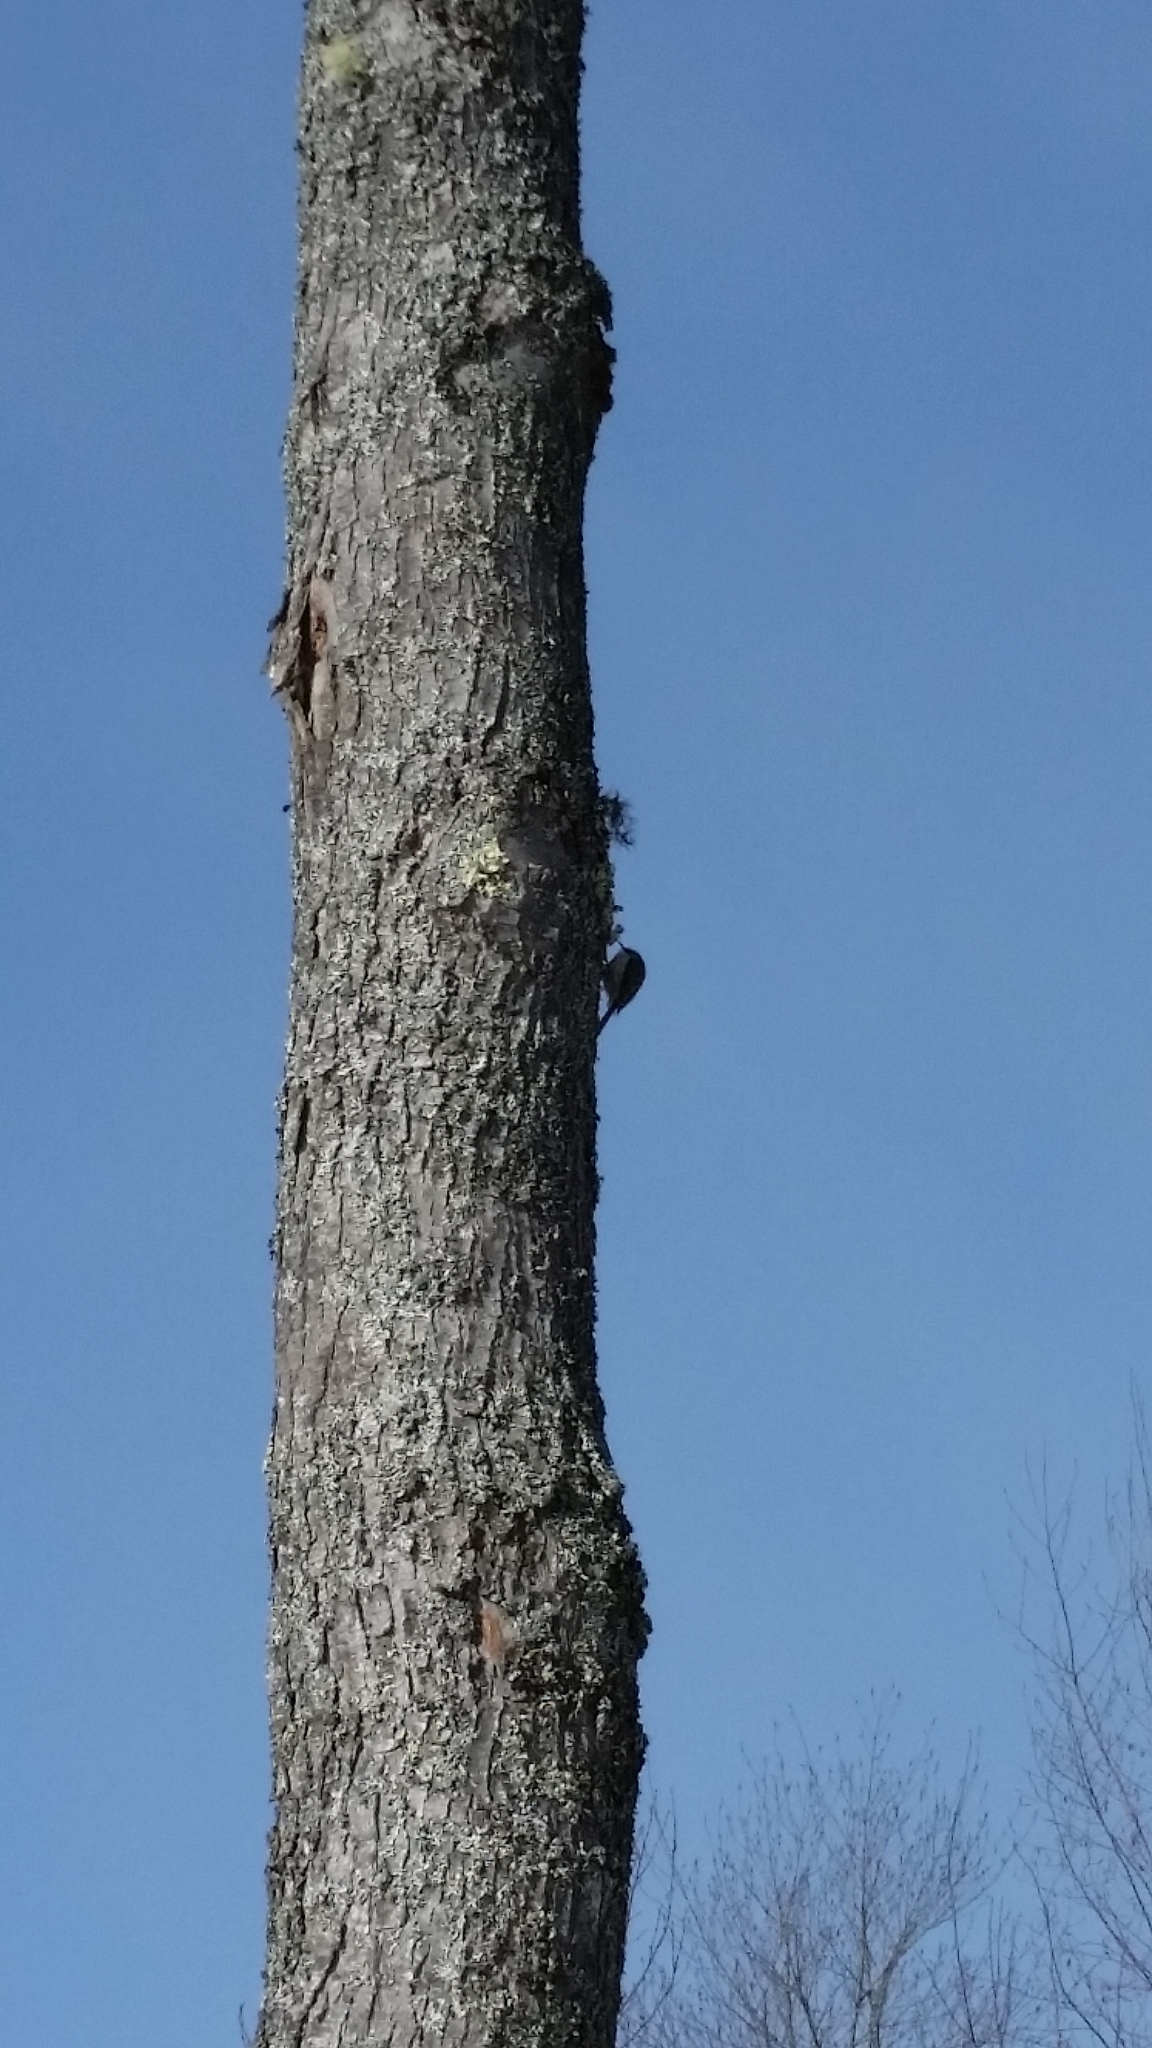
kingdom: Animalia
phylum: Chordata
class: Aves
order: Passeriformes
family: Certhiidae
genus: Certhia
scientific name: Certhia americana
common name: Brown creeper
